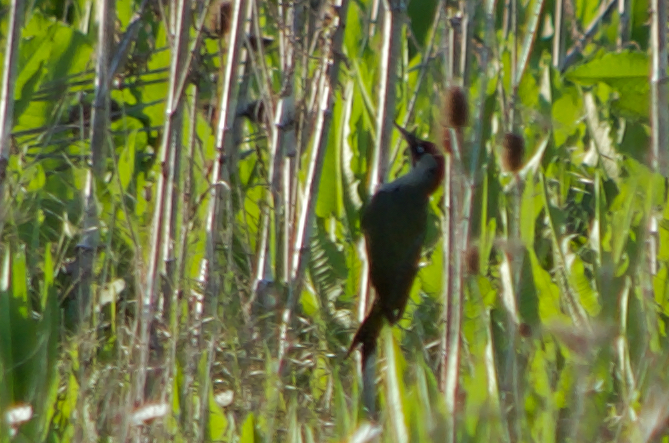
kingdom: Animalia
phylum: Chordata
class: Aves
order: Piciformes
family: Picidae
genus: Picus
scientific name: Picus viridis
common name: European green woodpecker
